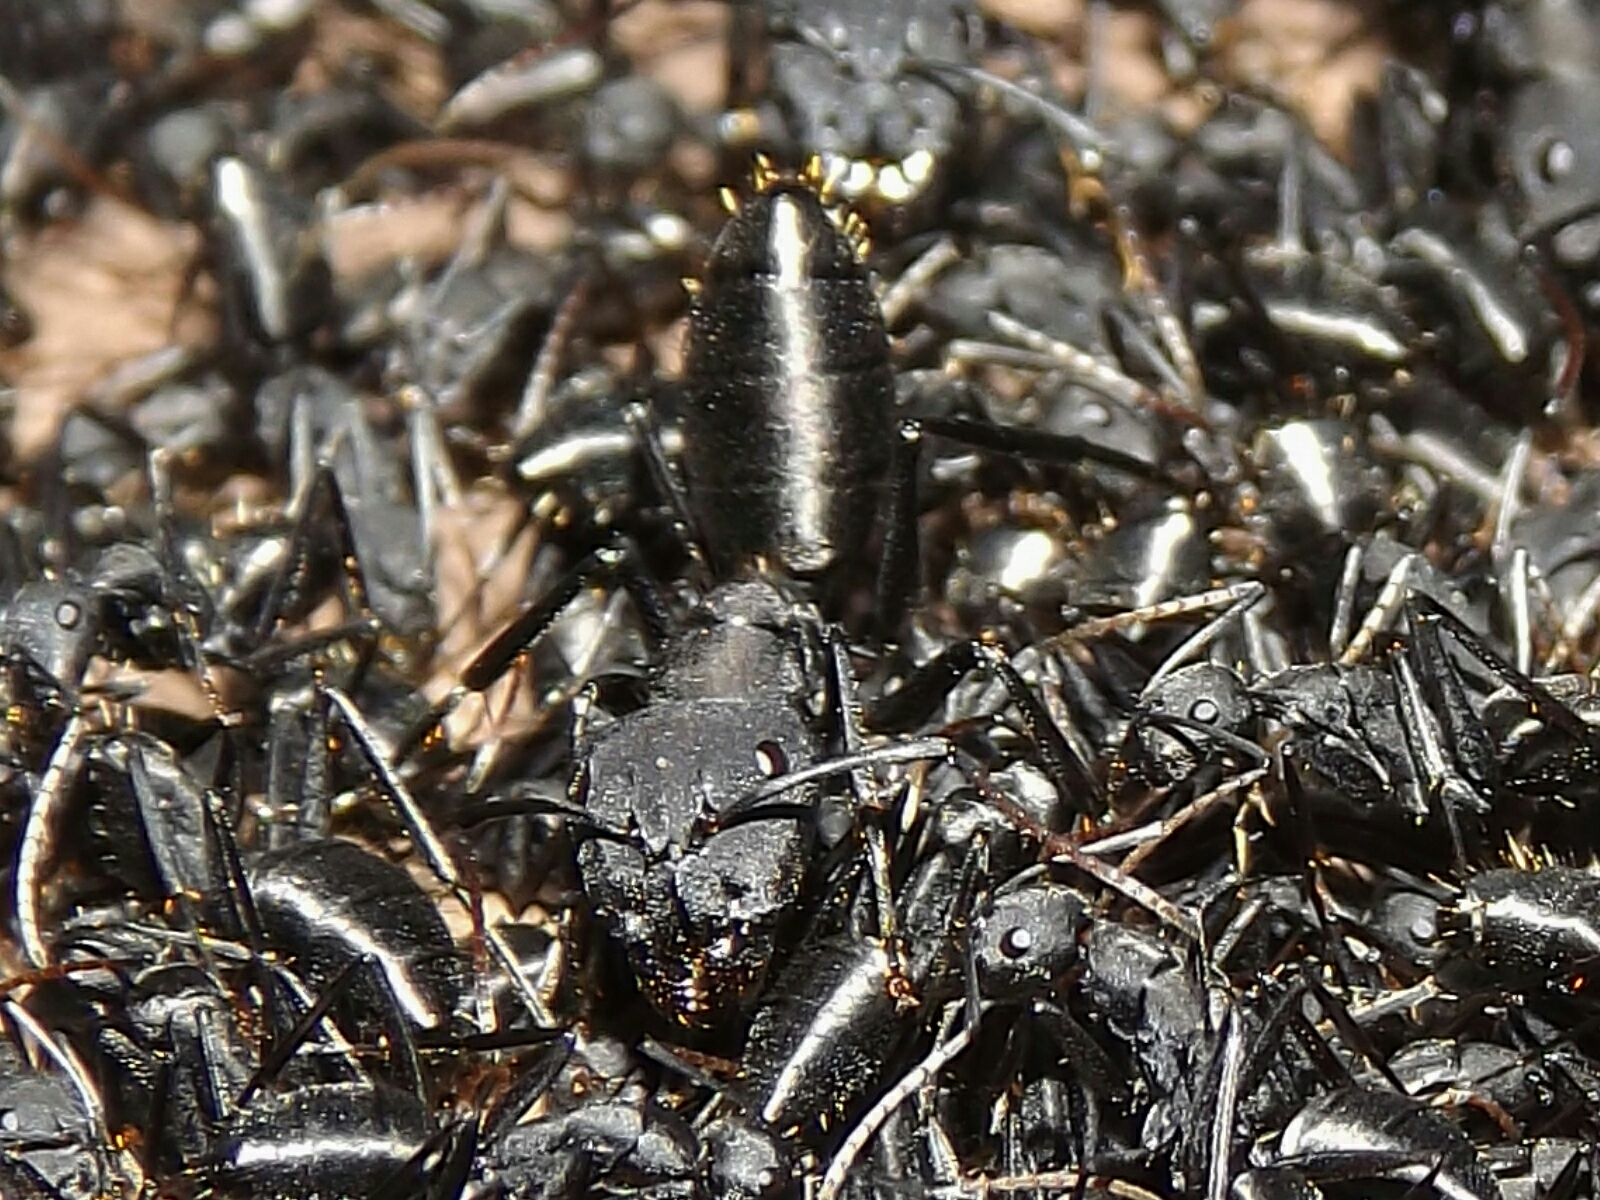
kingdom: Animalia
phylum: Arthropoda
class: Insecta
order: Hymenoptera
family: Formicidae
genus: Camponotus
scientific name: Camponotus morosus
